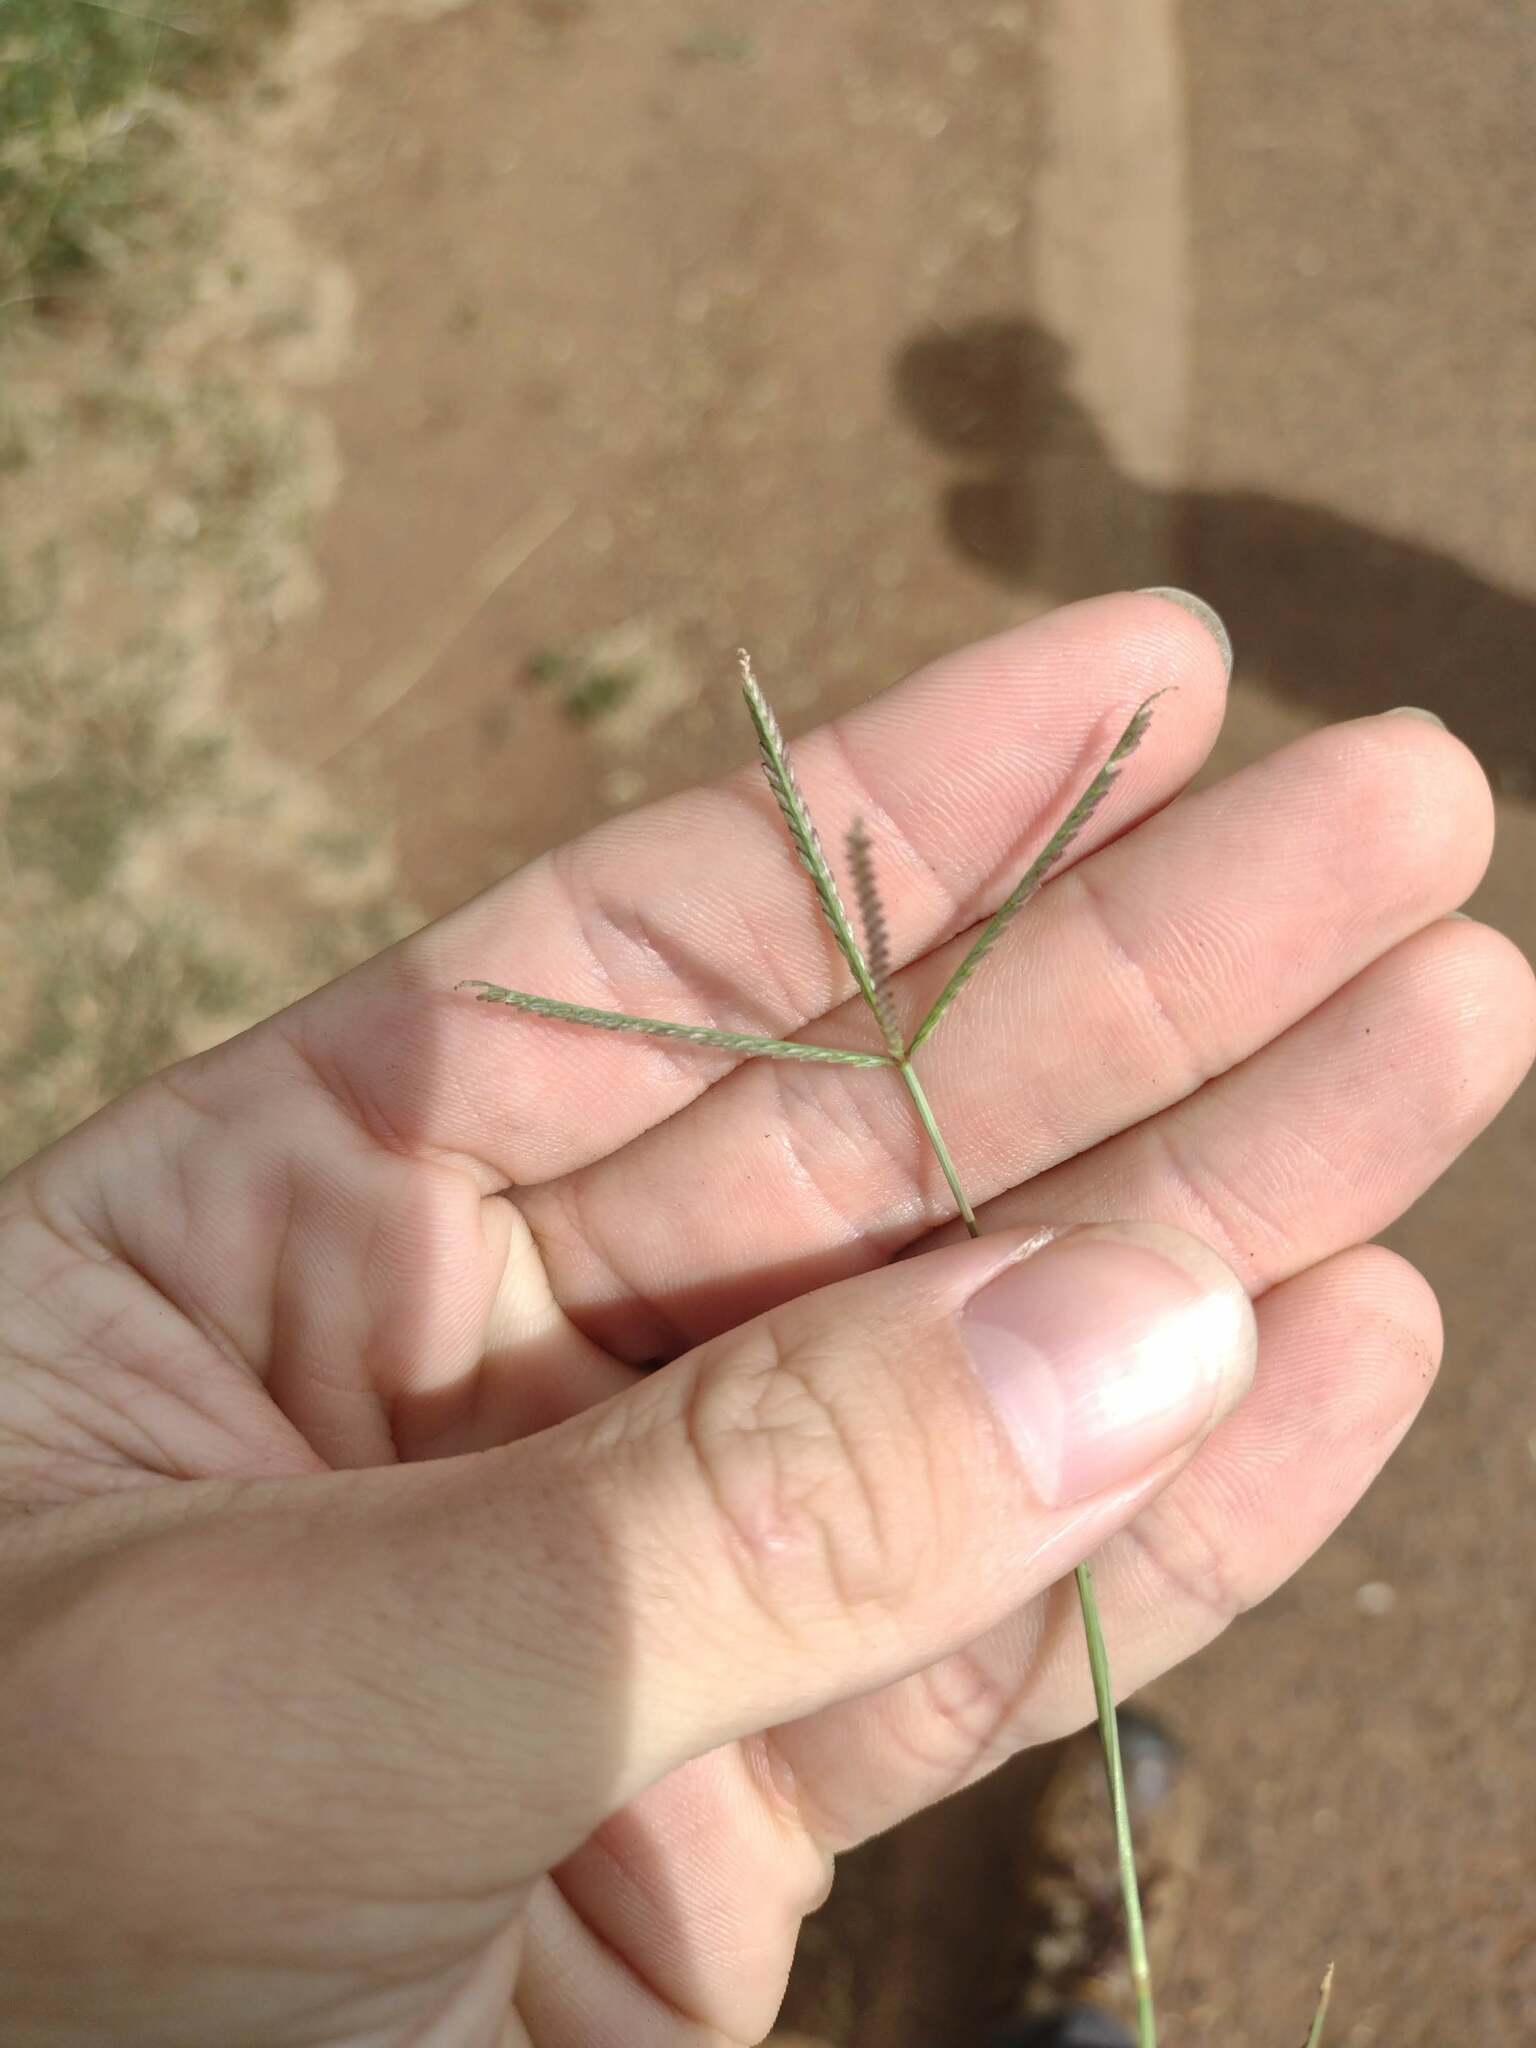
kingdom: Plantae
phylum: Tracheophyta
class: Liliopsida
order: Poales
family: Poaceae
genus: Cynodon
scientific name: Cynodon dactylon
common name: Bermuda grass
